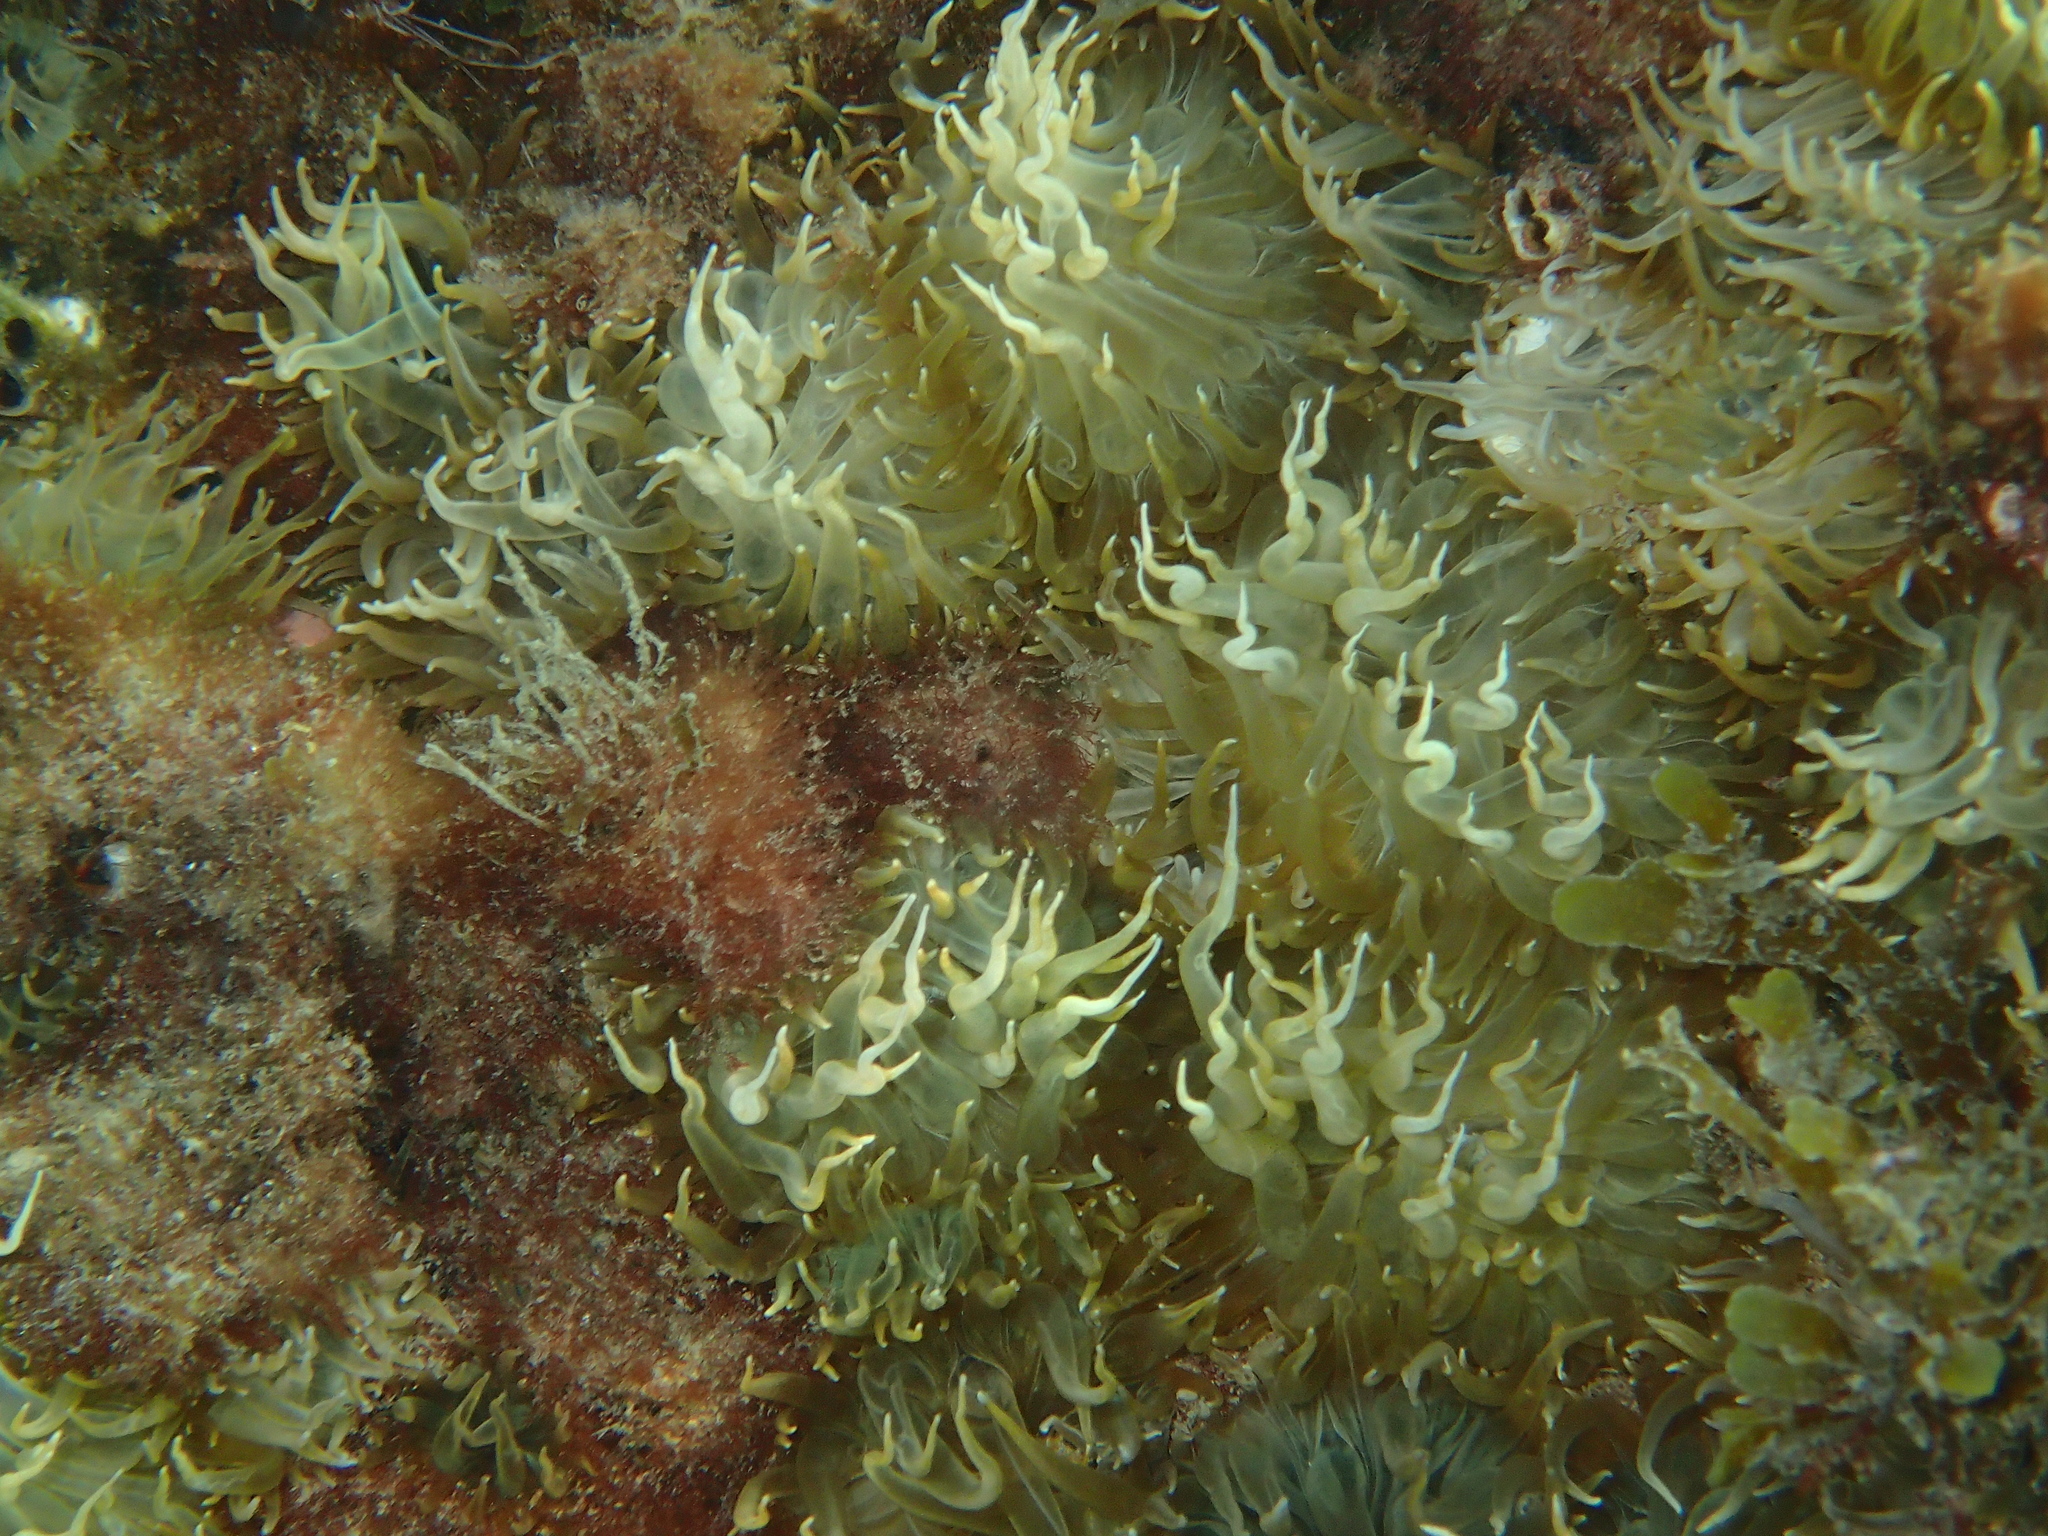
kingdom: Animalia
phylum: Cnidaria
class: Anthozoa
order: Actiniaria
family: Aiptasiidae
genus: Aiptasia
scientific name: Aiptasia couchii
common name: Trumpet anemone
